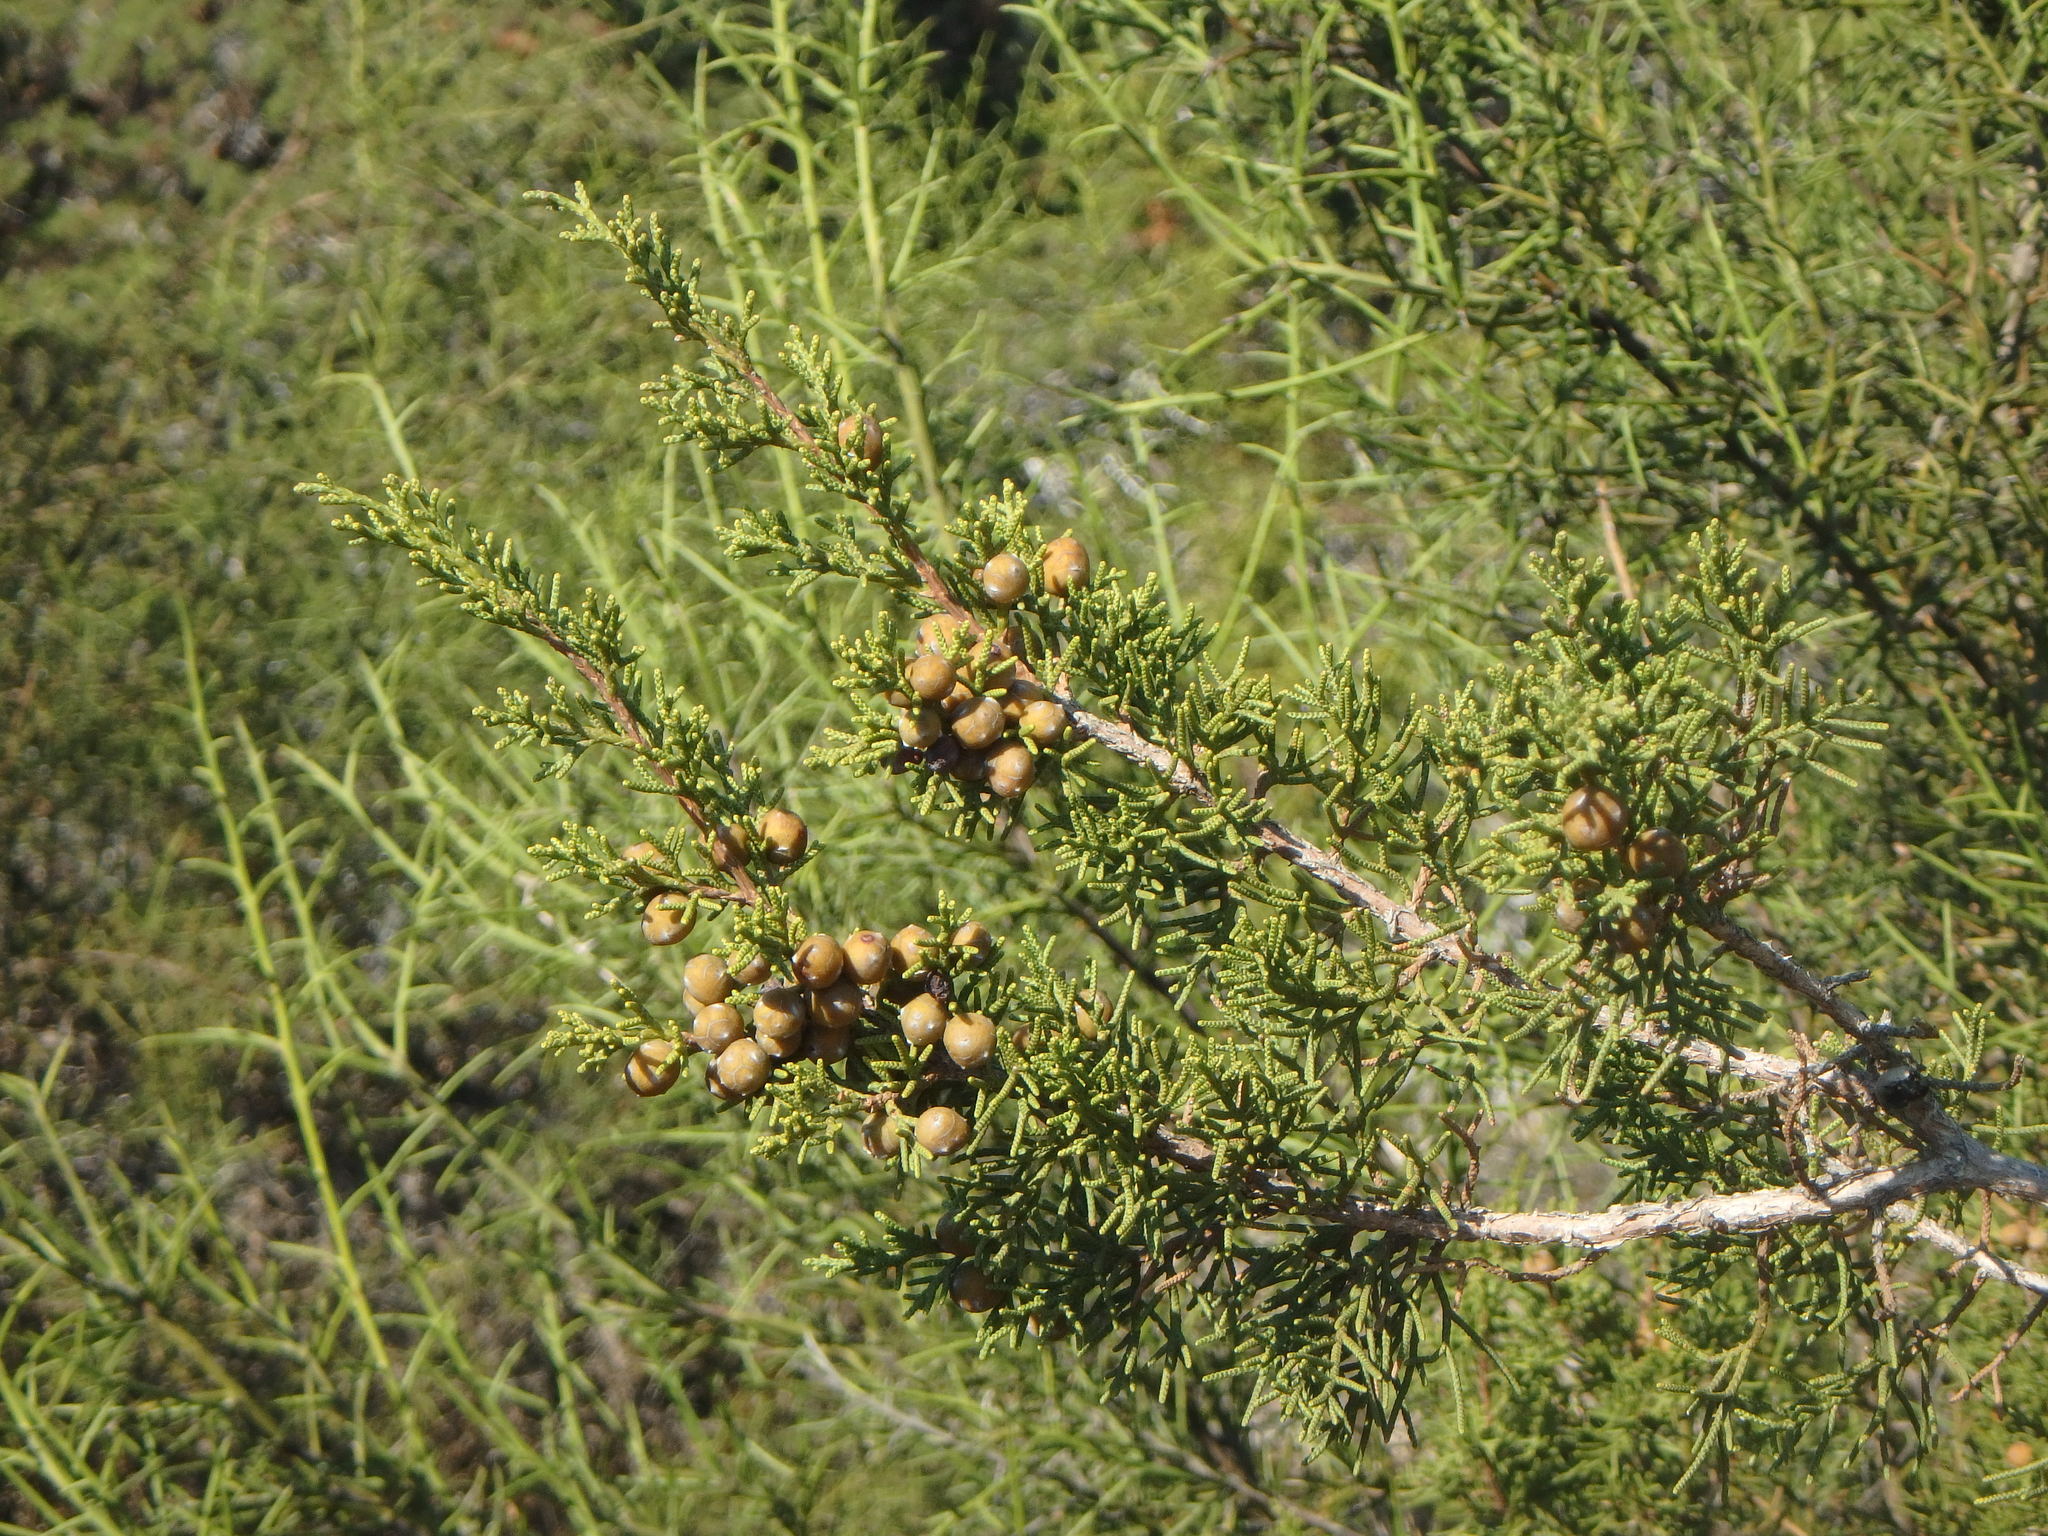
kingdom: Plantae
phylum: Tracheophyta
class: Pinopsida
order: Pinales
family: Cupressaceae
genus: Juniperus
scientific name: Juniperus phoenicea
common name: Phoenician juniper
